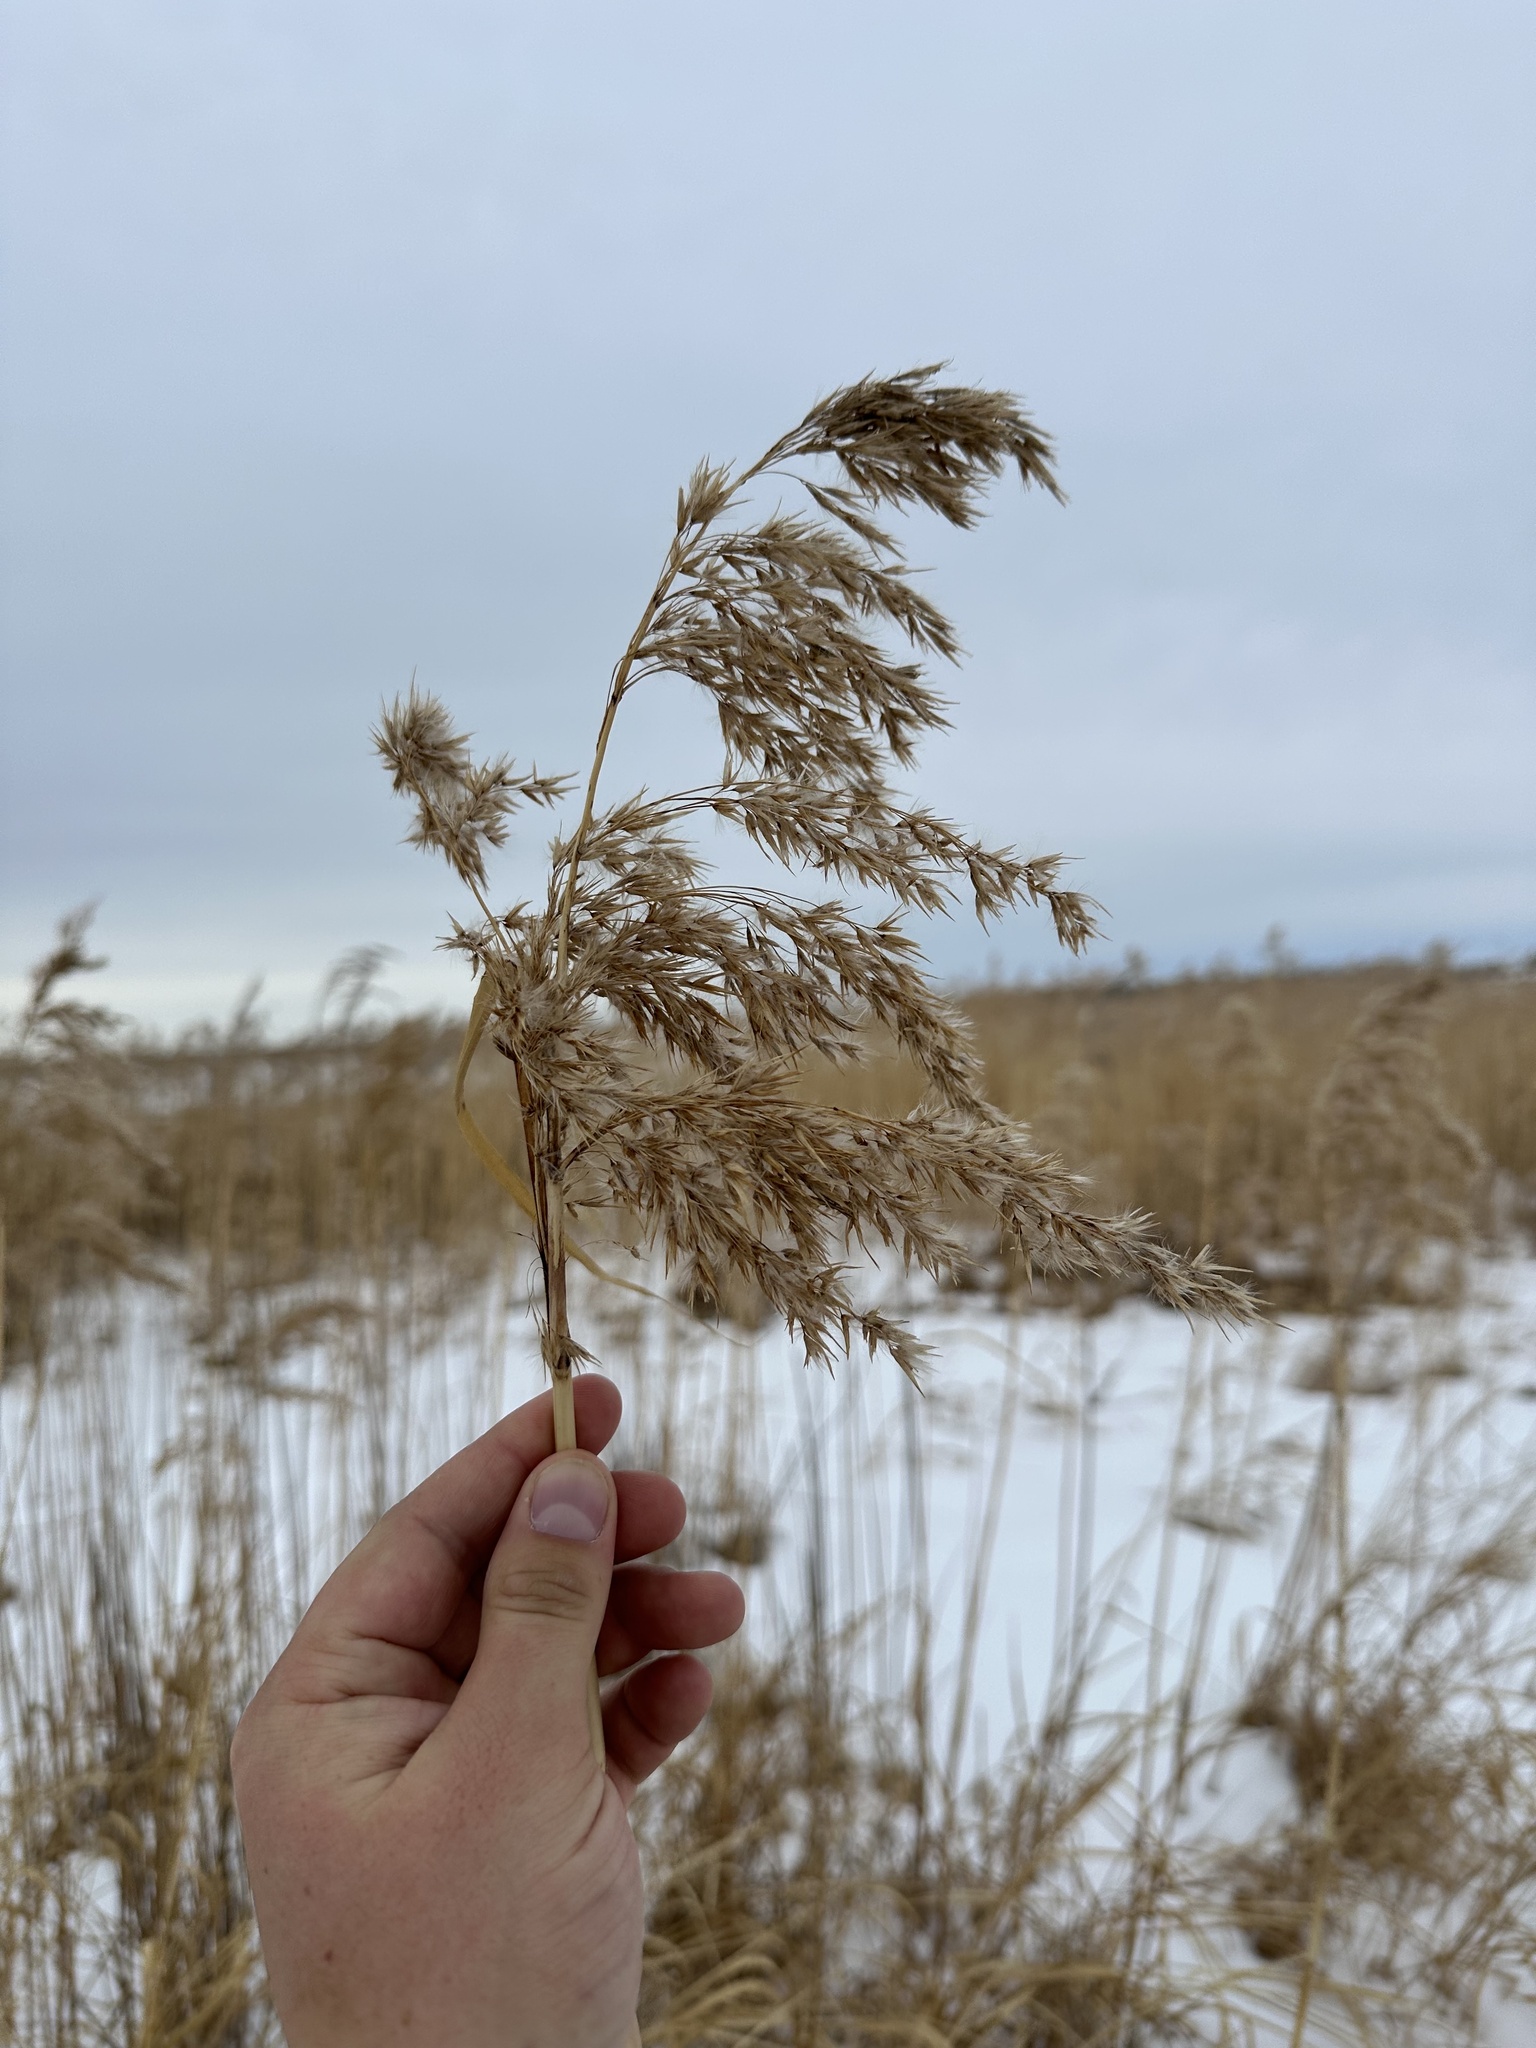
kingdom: Plantae
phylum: Tracheophyta
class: Liliopsida
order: Poales
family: Poaceae
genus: Phragmites
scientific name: Phragmites australis
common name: Common reed
